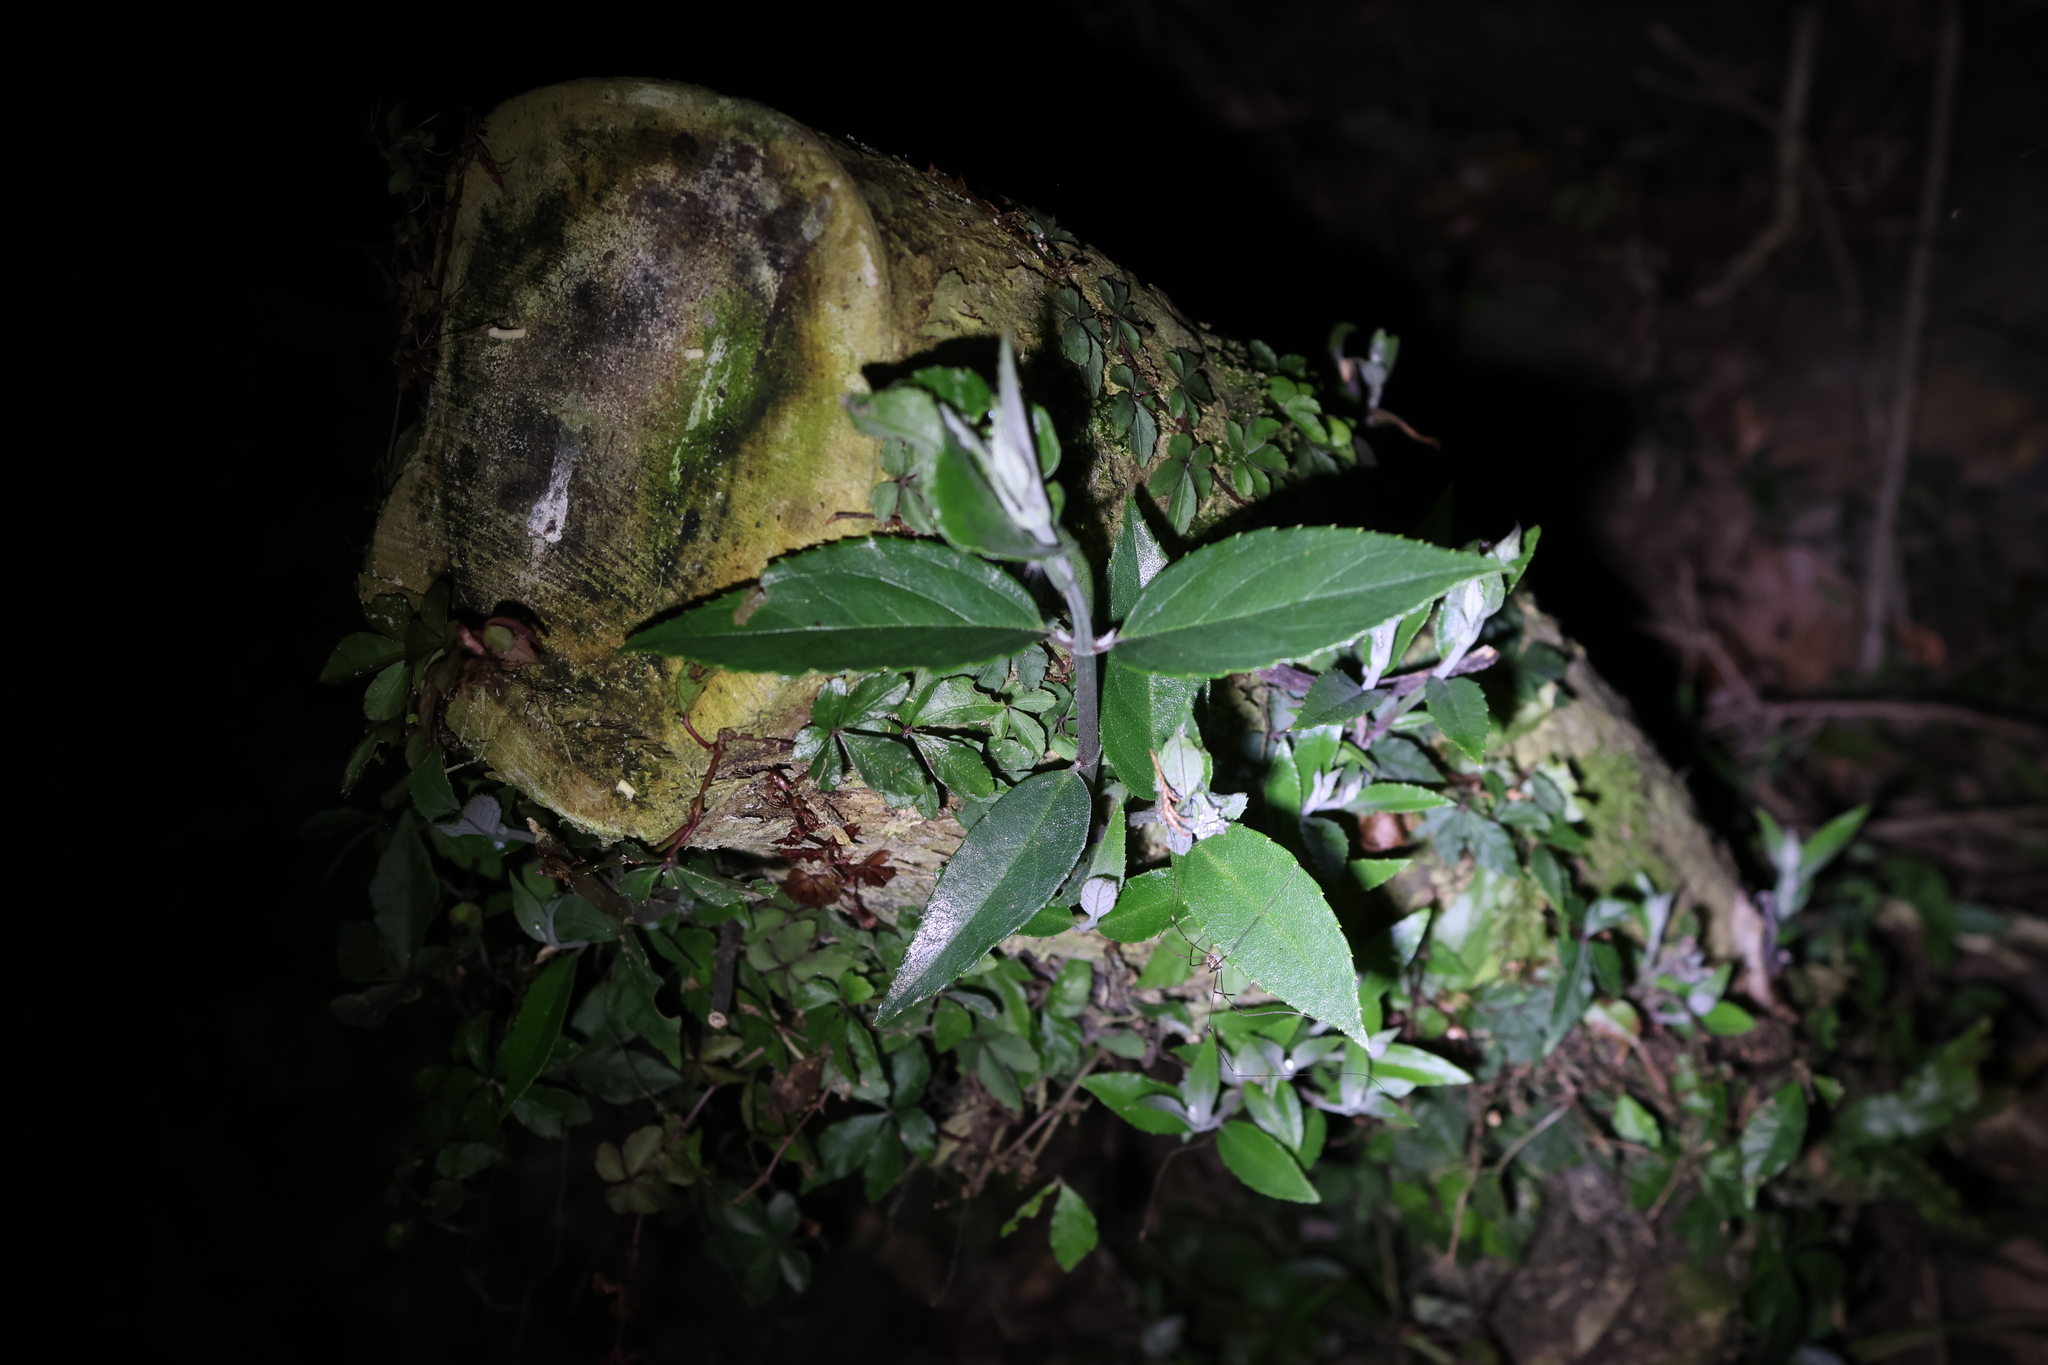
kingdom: Plantae
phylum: Tracheophyta
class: Magnoliopsida
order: Cornales
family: Hydrangeaceae
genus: Deutzia
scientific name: Deutzia pulchra
